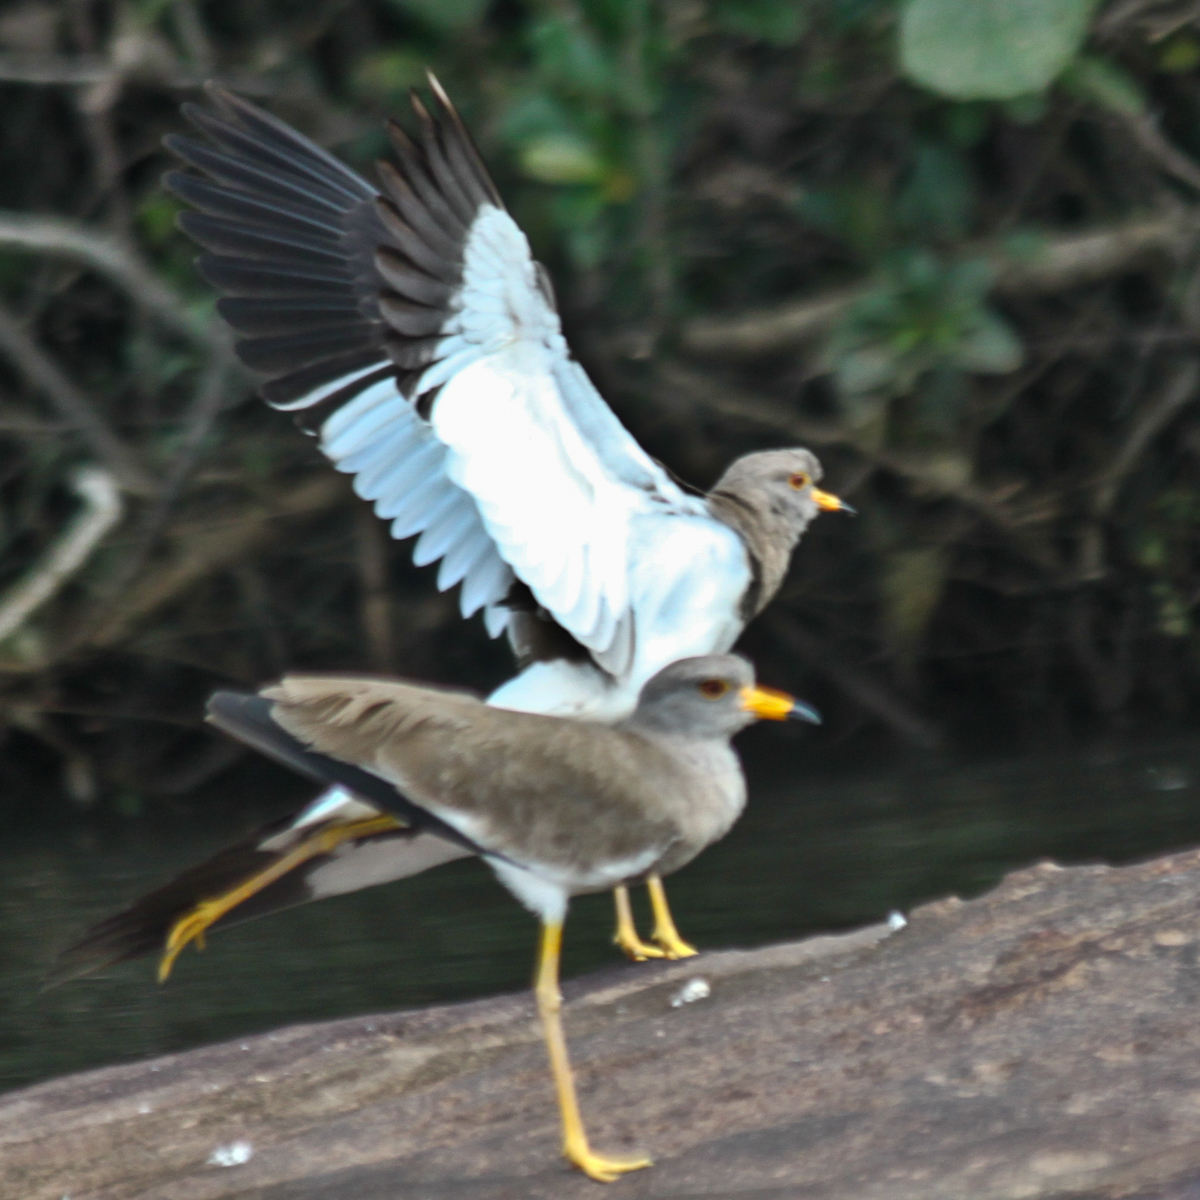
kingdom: Animalia
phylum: Chordata
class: Aves
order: Charadriiformes
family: Charadriidae
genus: Vanellus
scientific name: Vanellus cinereus
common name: Grey-headed lapwing
